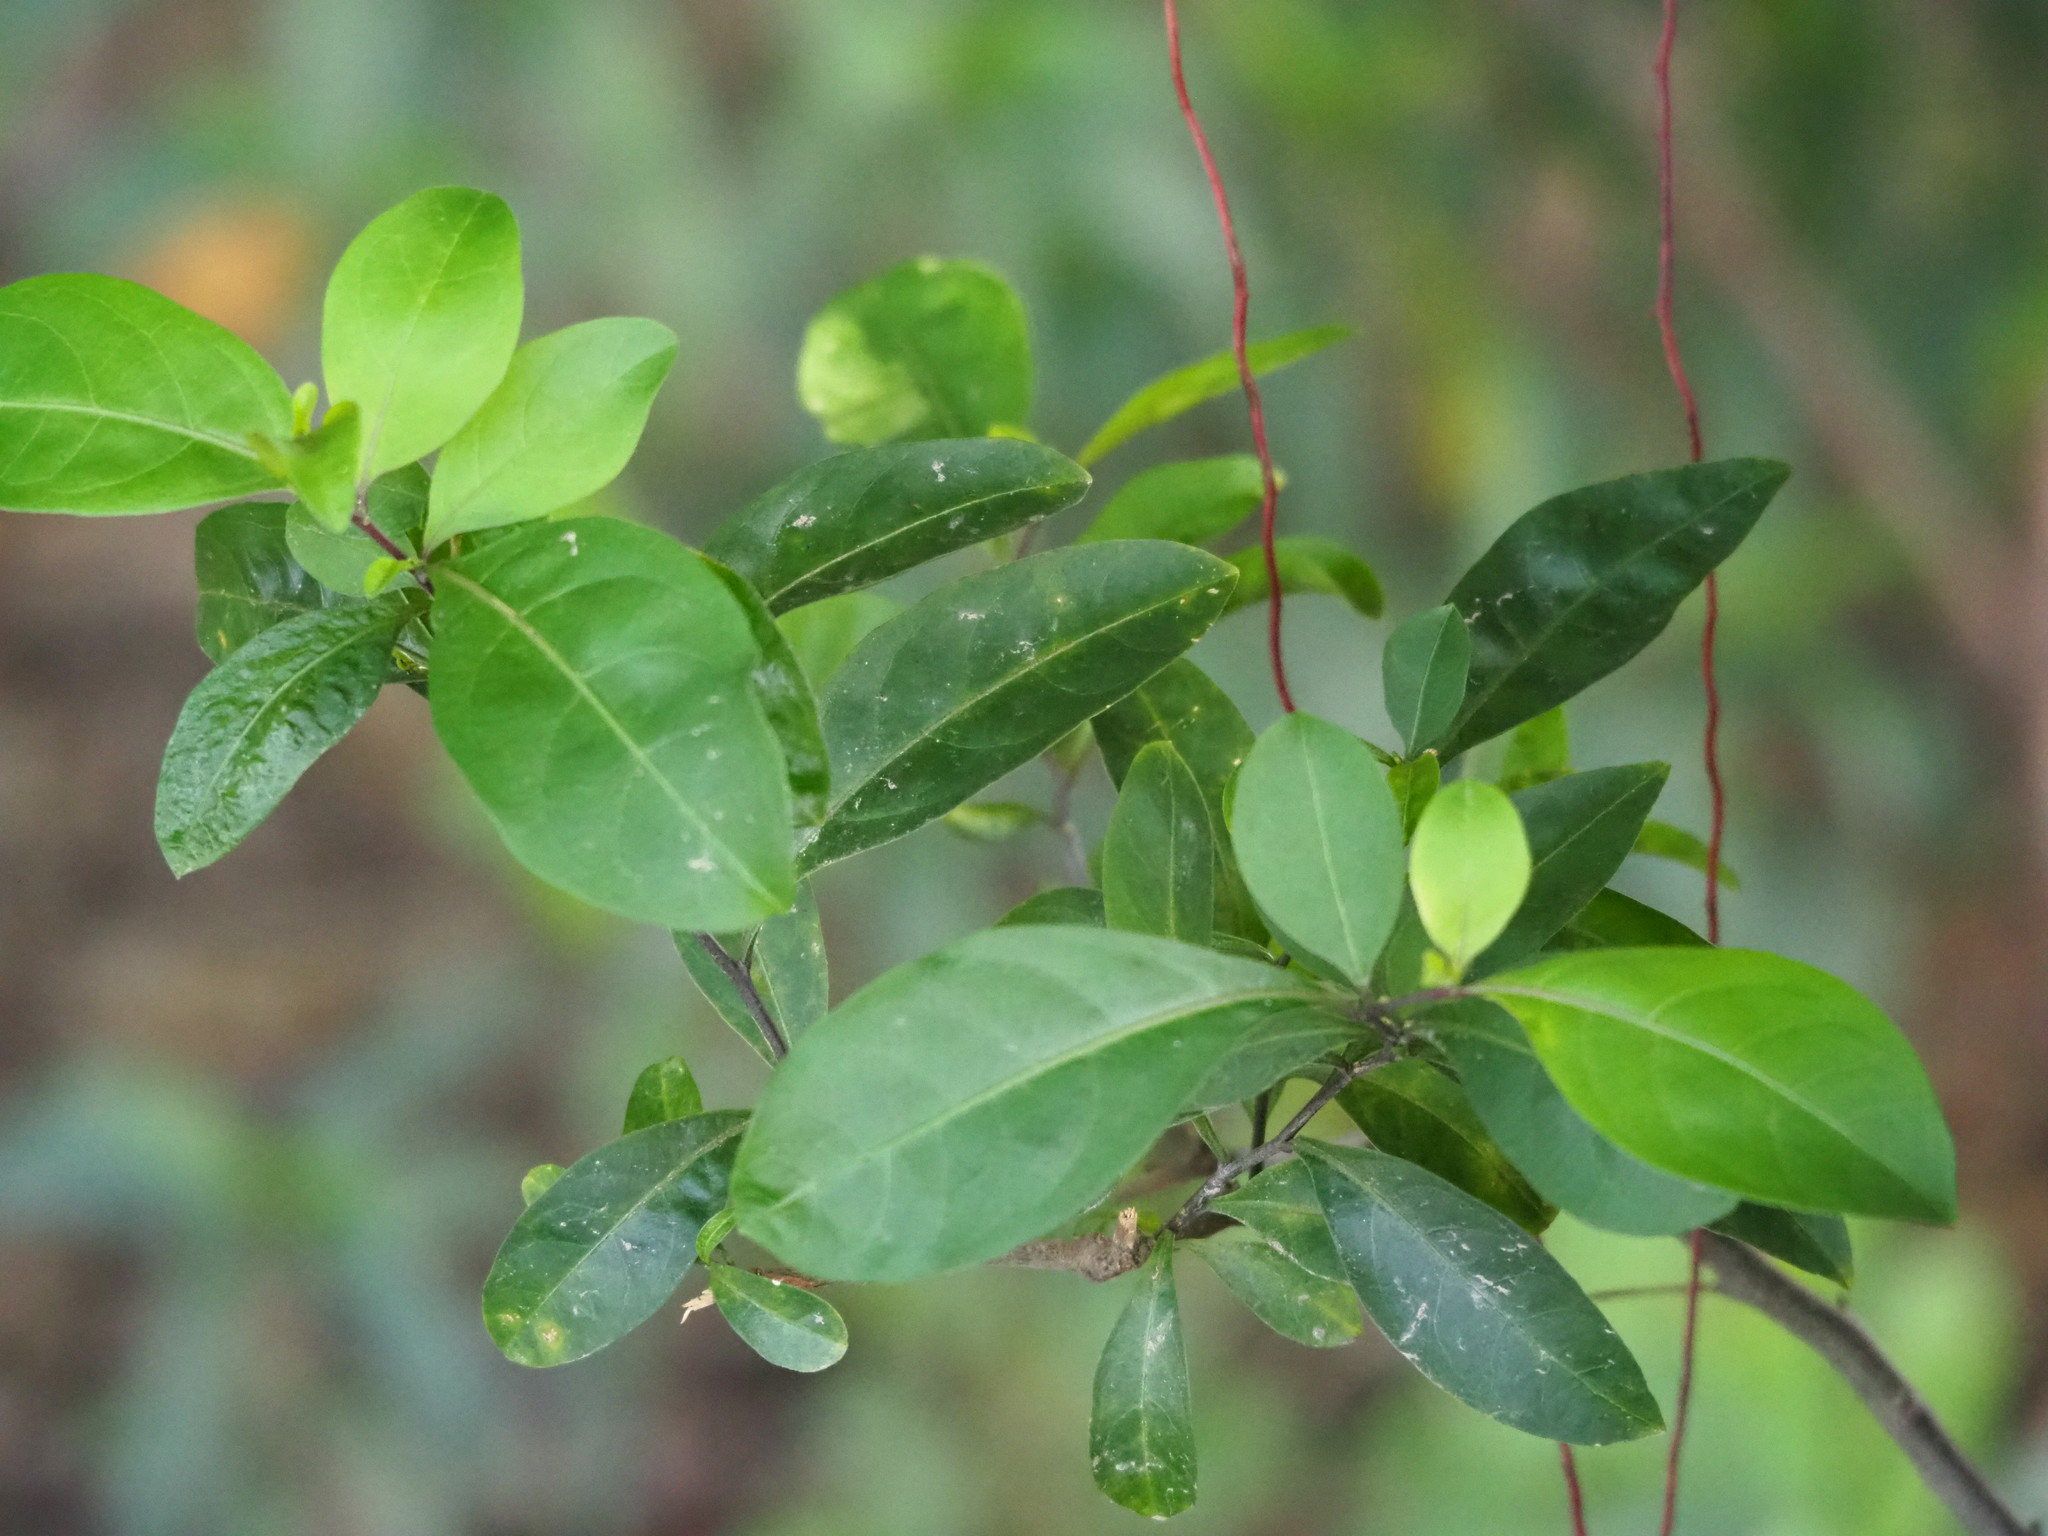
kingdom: Plantae
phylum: Tracheophyta
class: Magnoliopsida
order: Solanales
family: Solanaceae
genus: Solanum
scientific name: Solanum diphyllum
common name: Twoleaf nightshade
